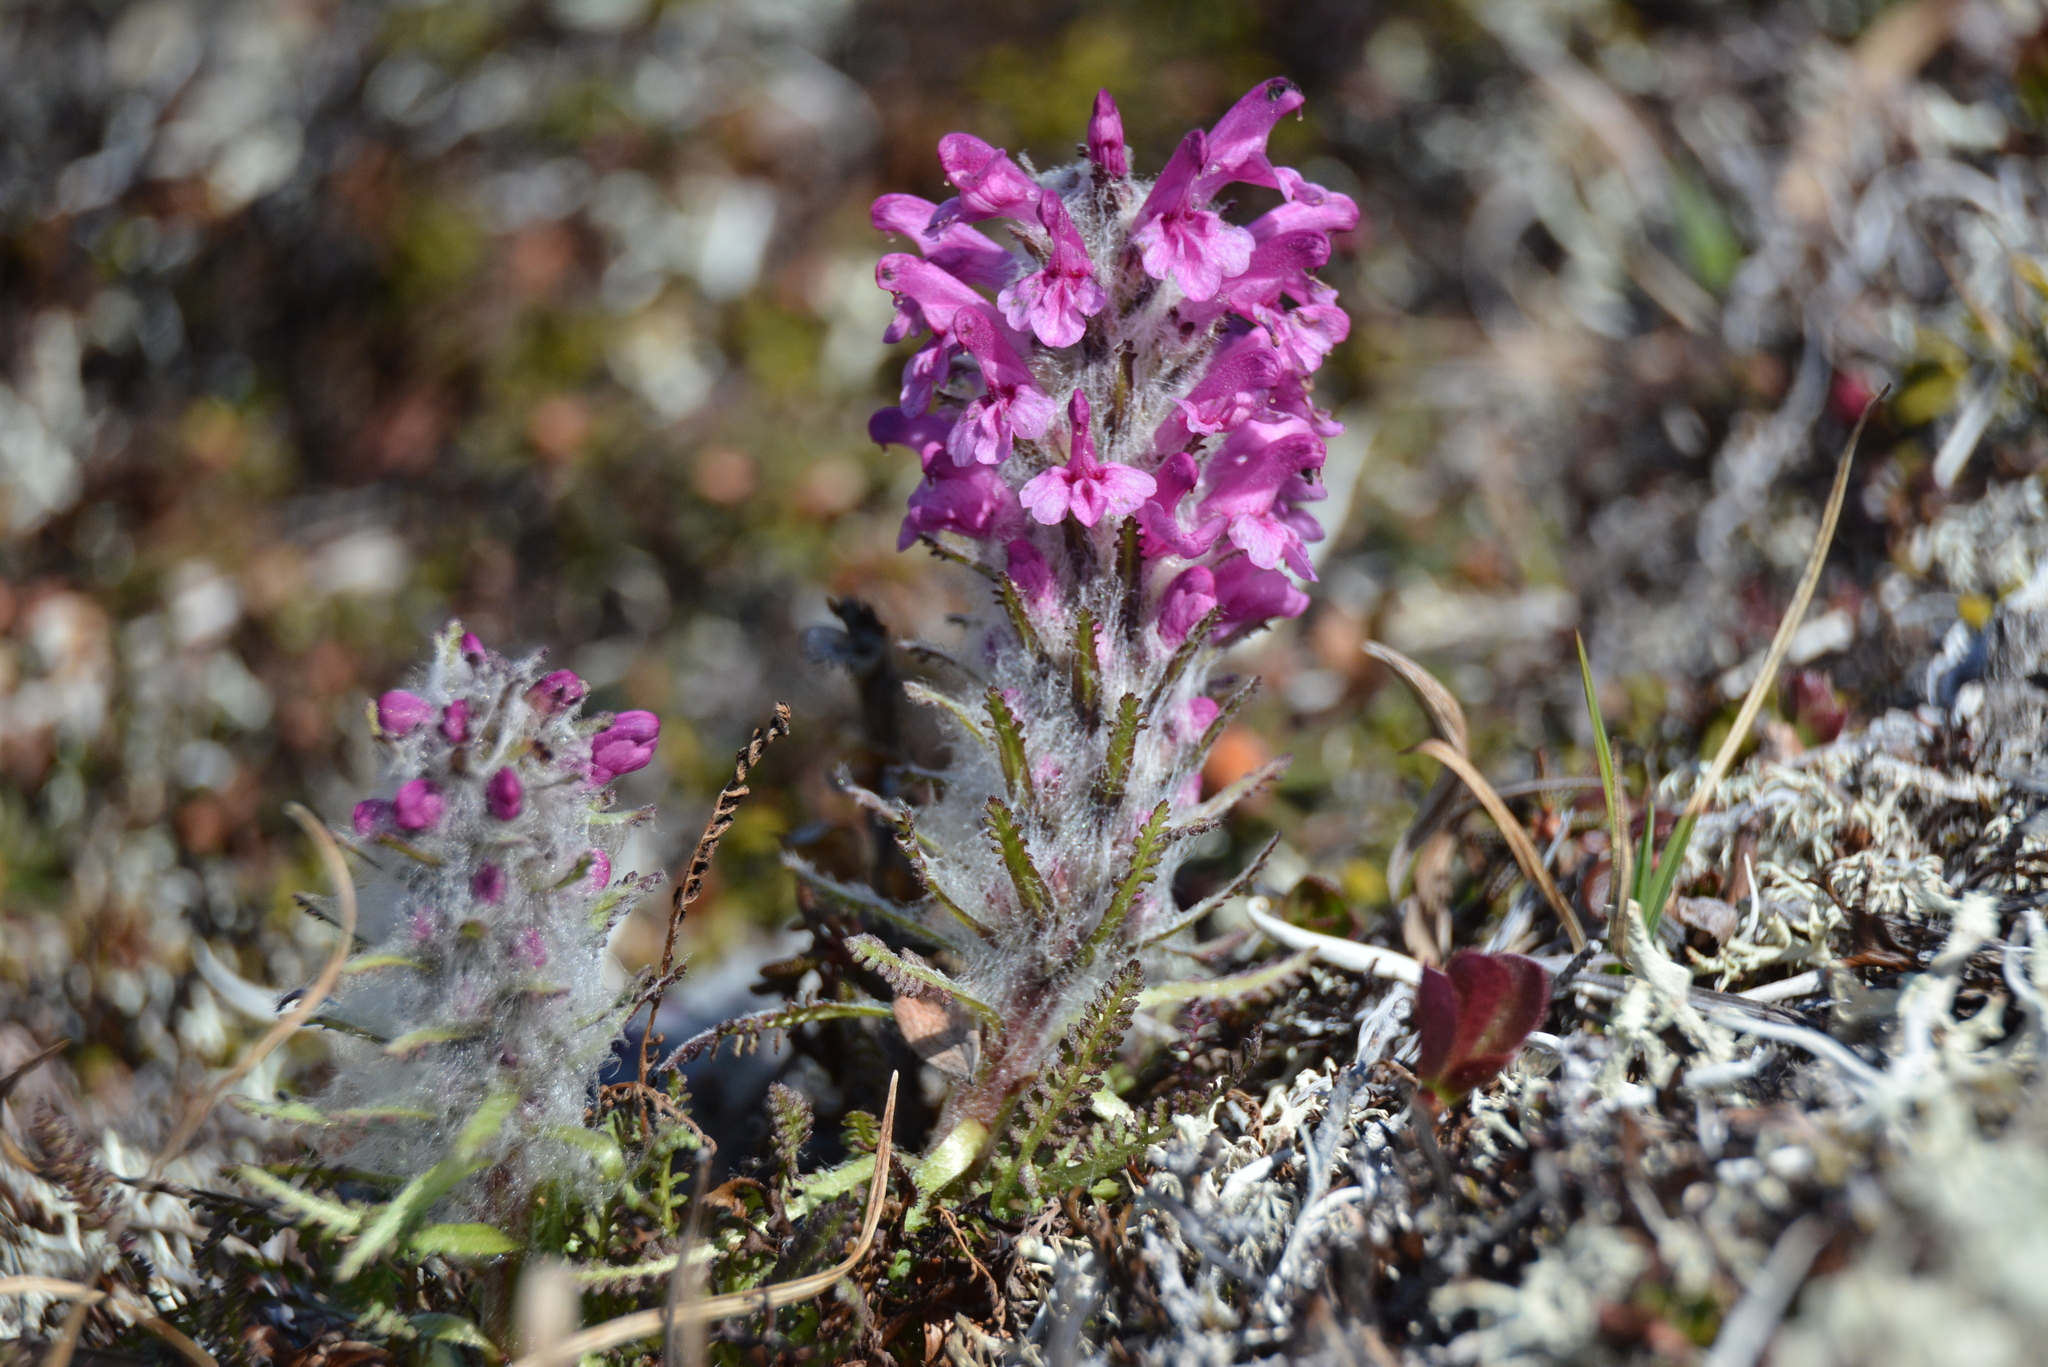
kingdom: Plantae
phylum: Tracheophyta
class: Magnoliopsida
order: Lamiales
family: Orobanchaceae
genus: Pedicularis
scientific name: Pedicularis lanata
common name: Woolly lousewort
